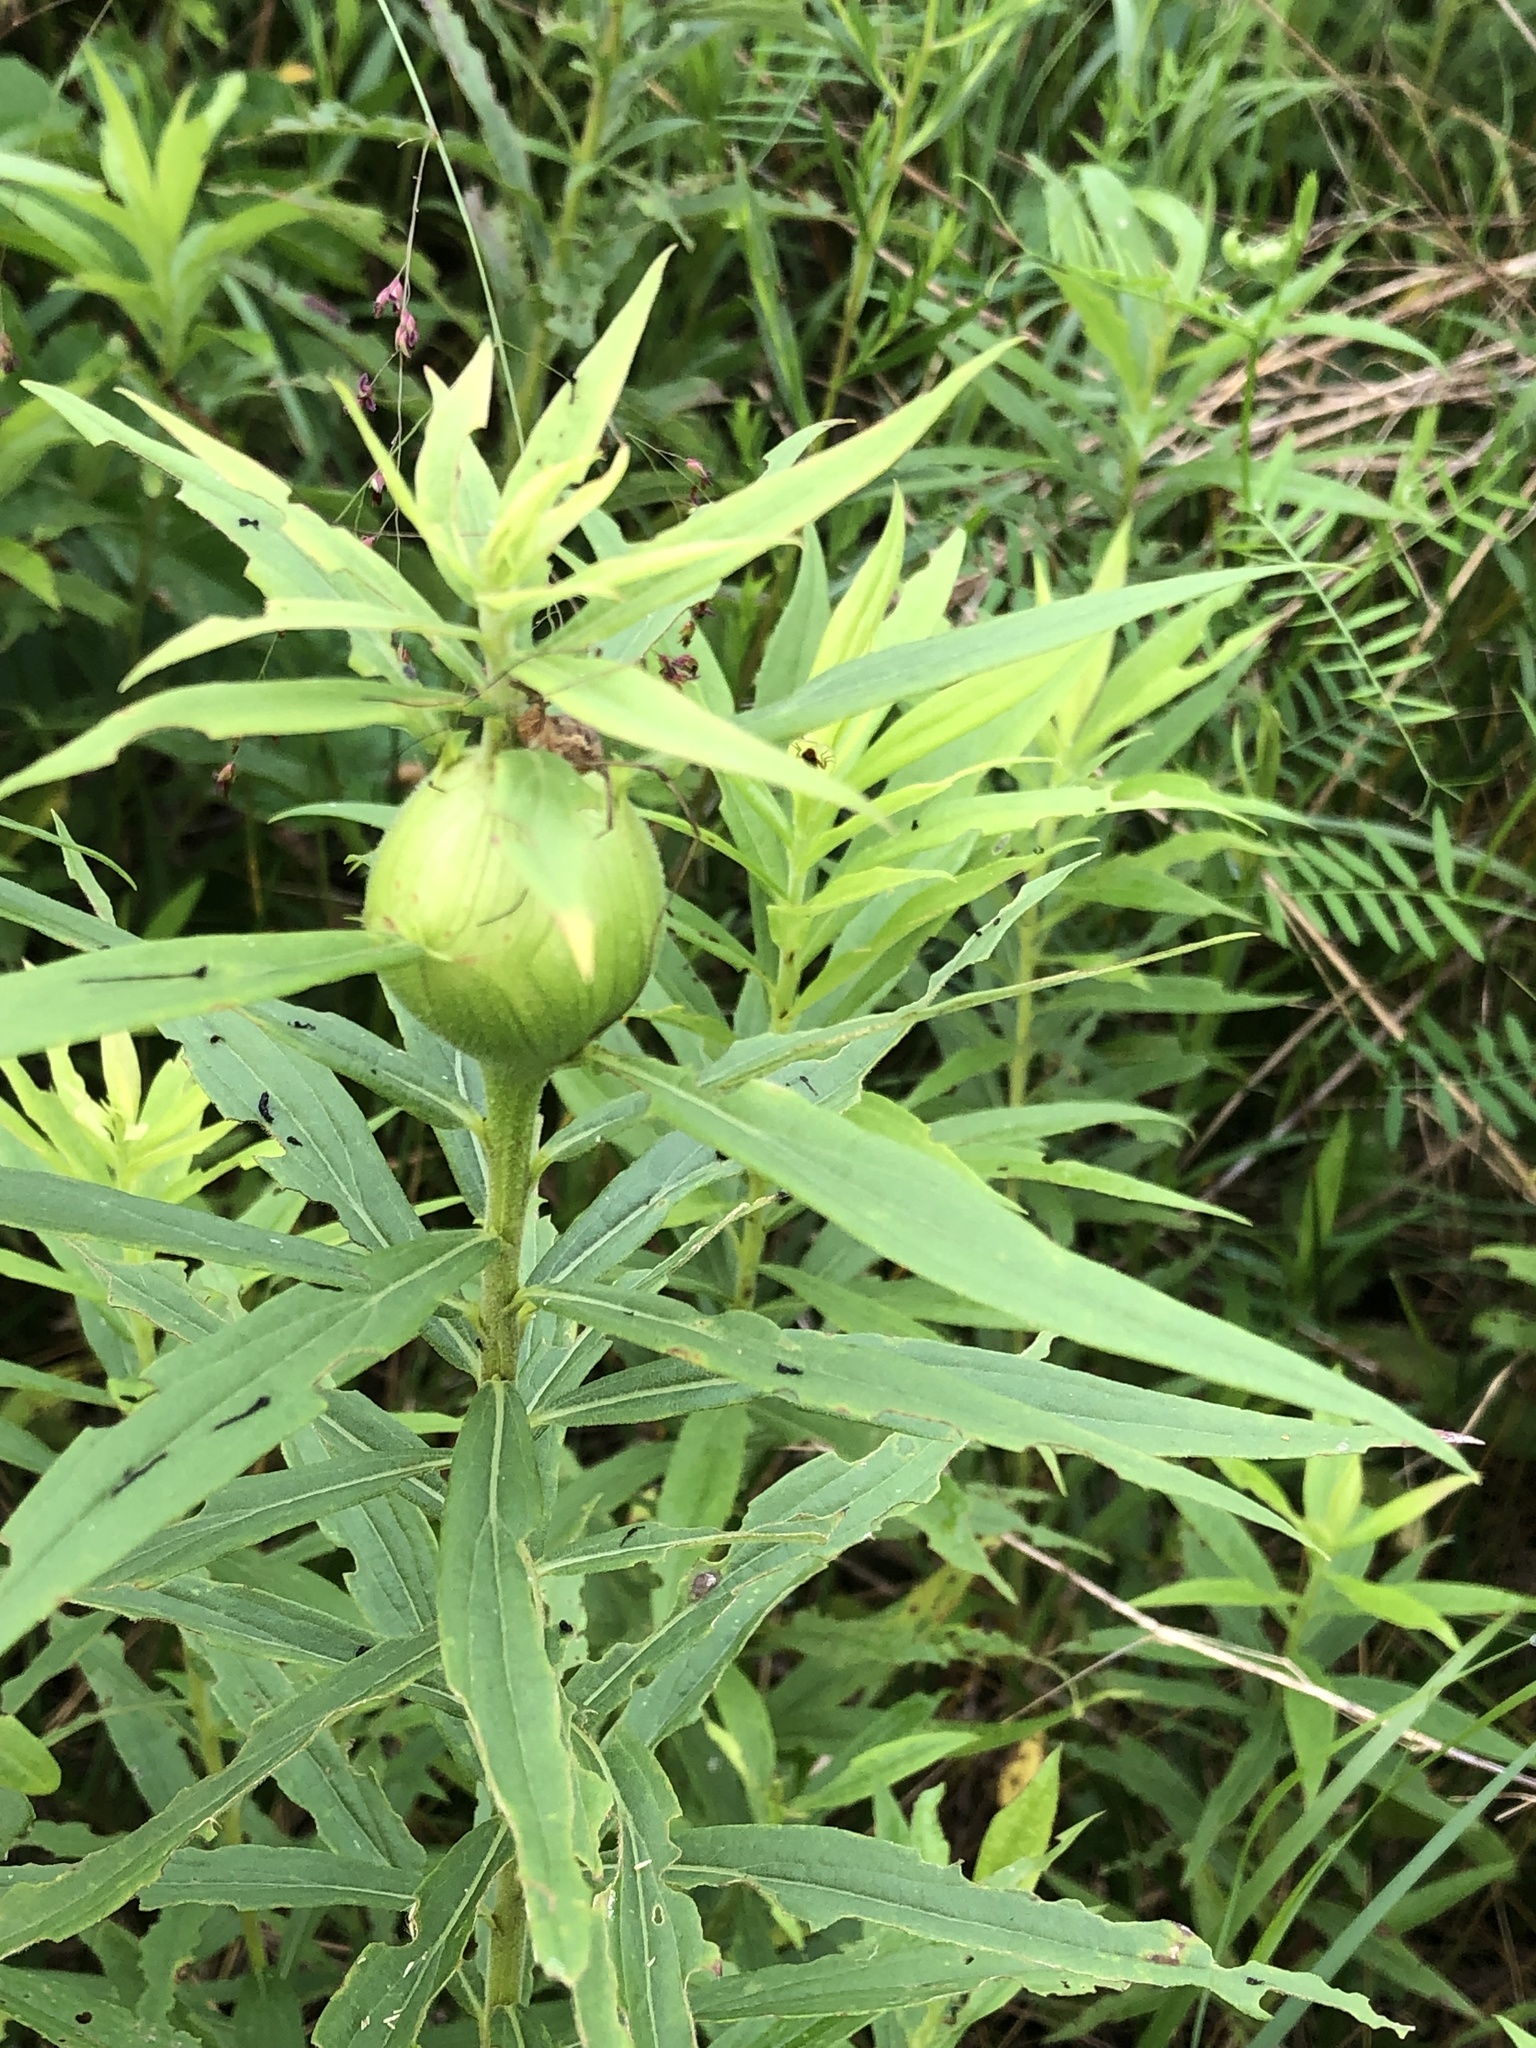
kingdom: Animalia
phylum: Arthropoda
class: Insecta
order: Diptera
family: Tephritidae
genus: Eurosta
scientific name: Eurosta solidaginis
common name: Goldenrod gall fly
